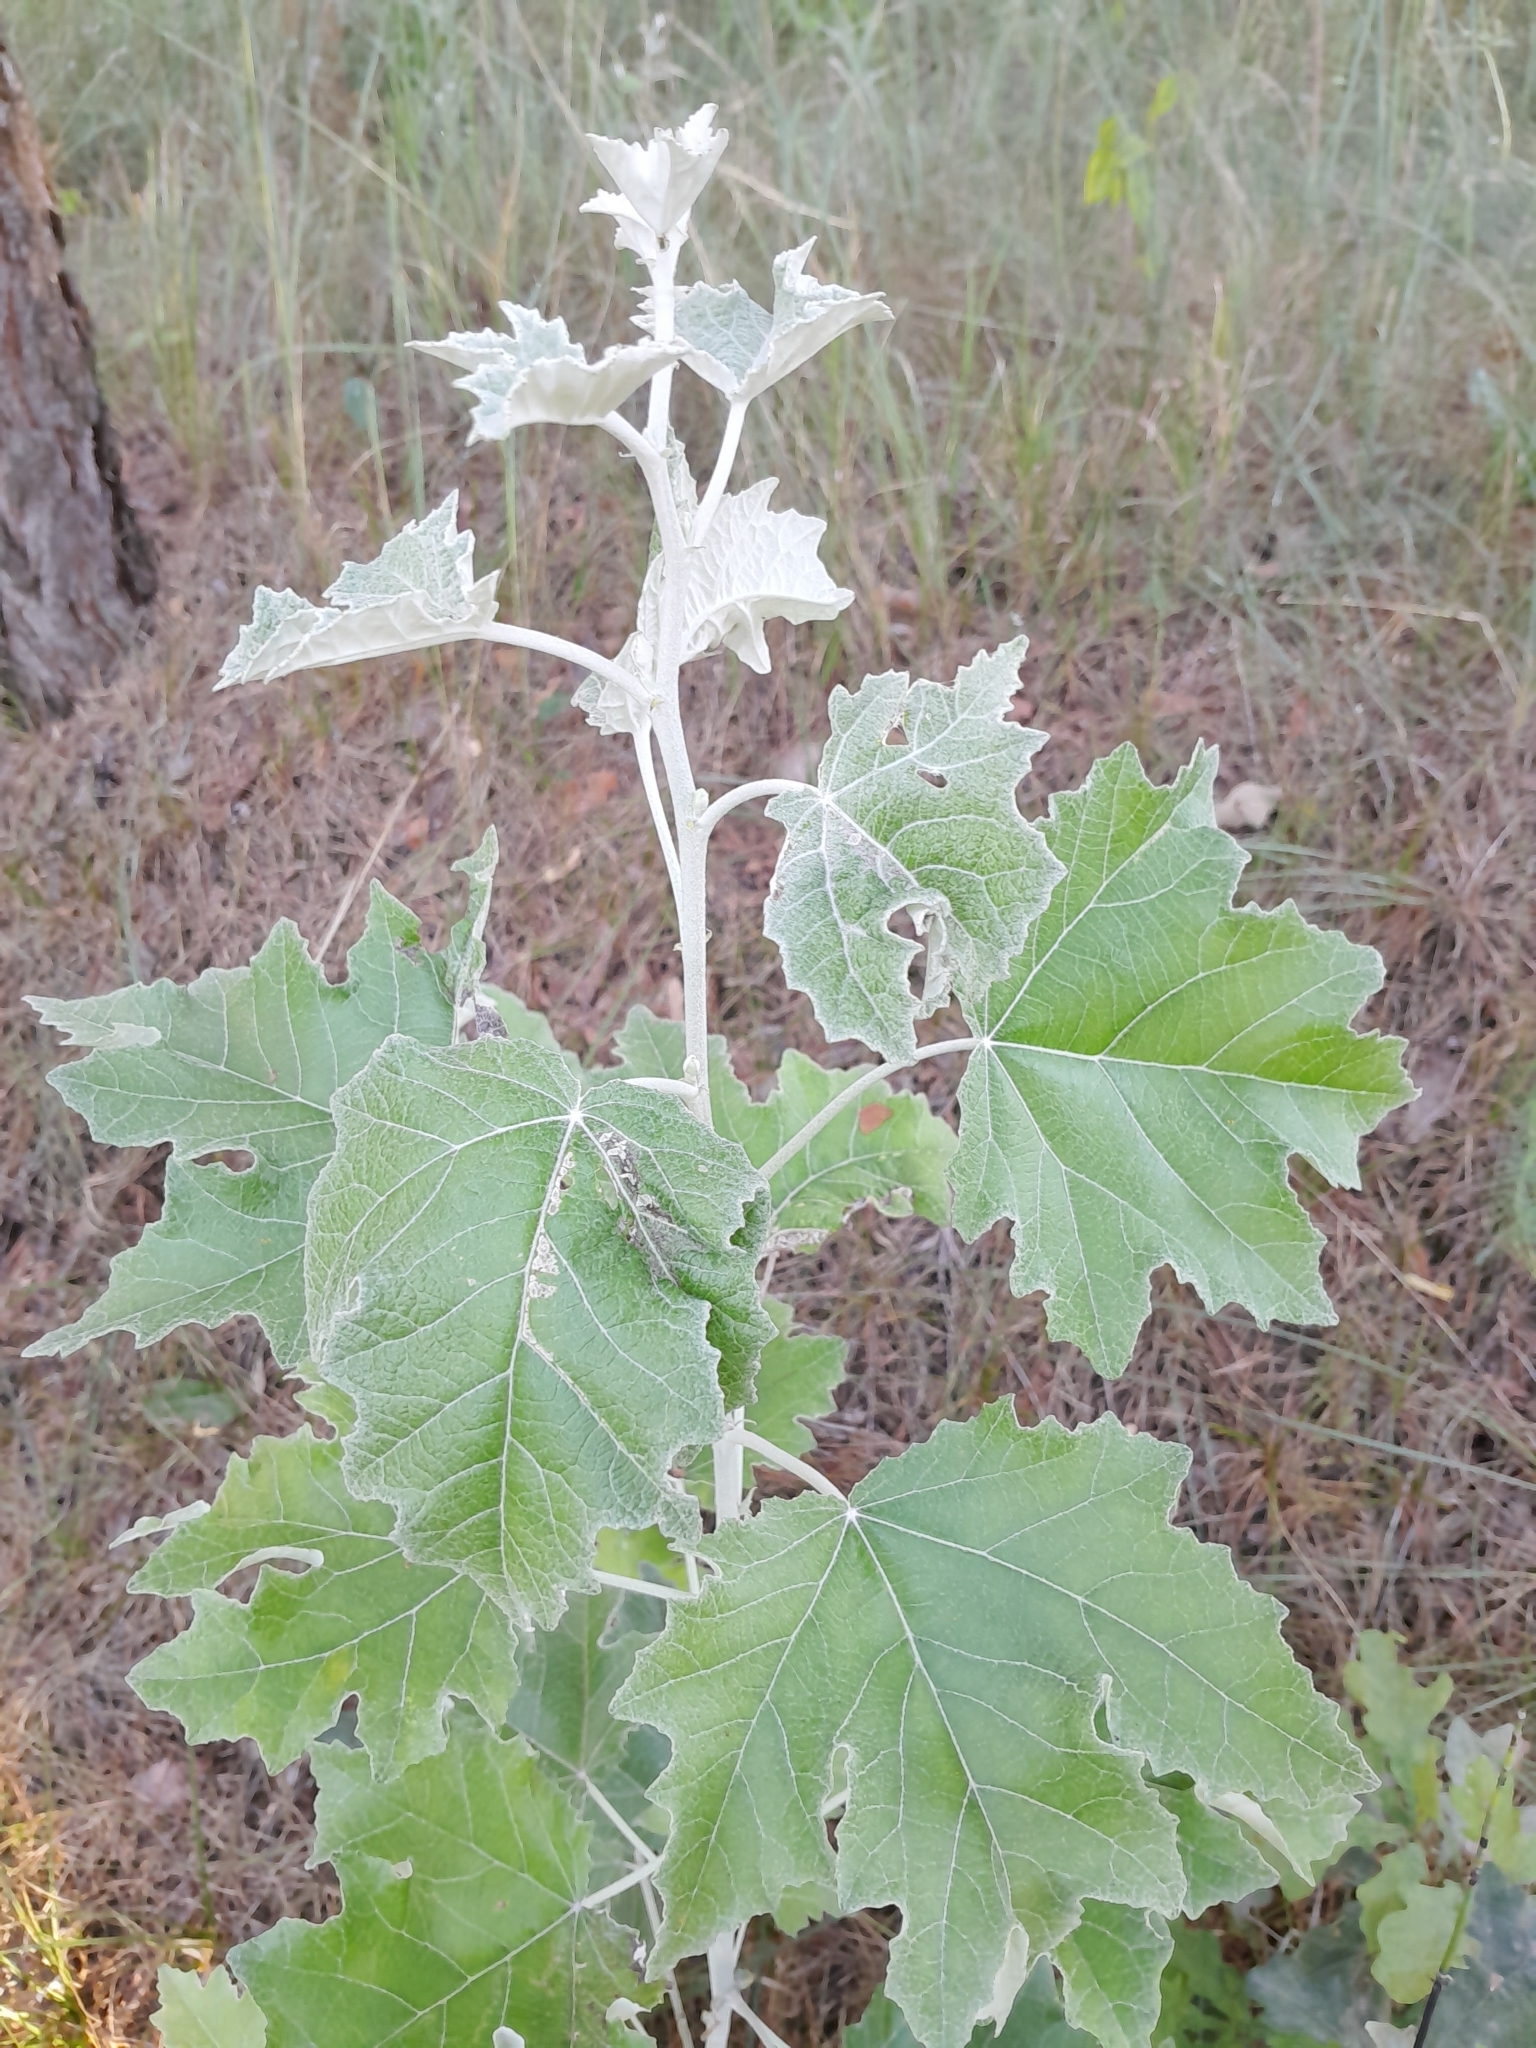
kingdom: Plantae
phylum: Tracheophyta
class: Magnoliopsida
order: Malpighiales
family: Salicaceae
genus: Populus
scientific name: Populus alba
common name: White poplar
